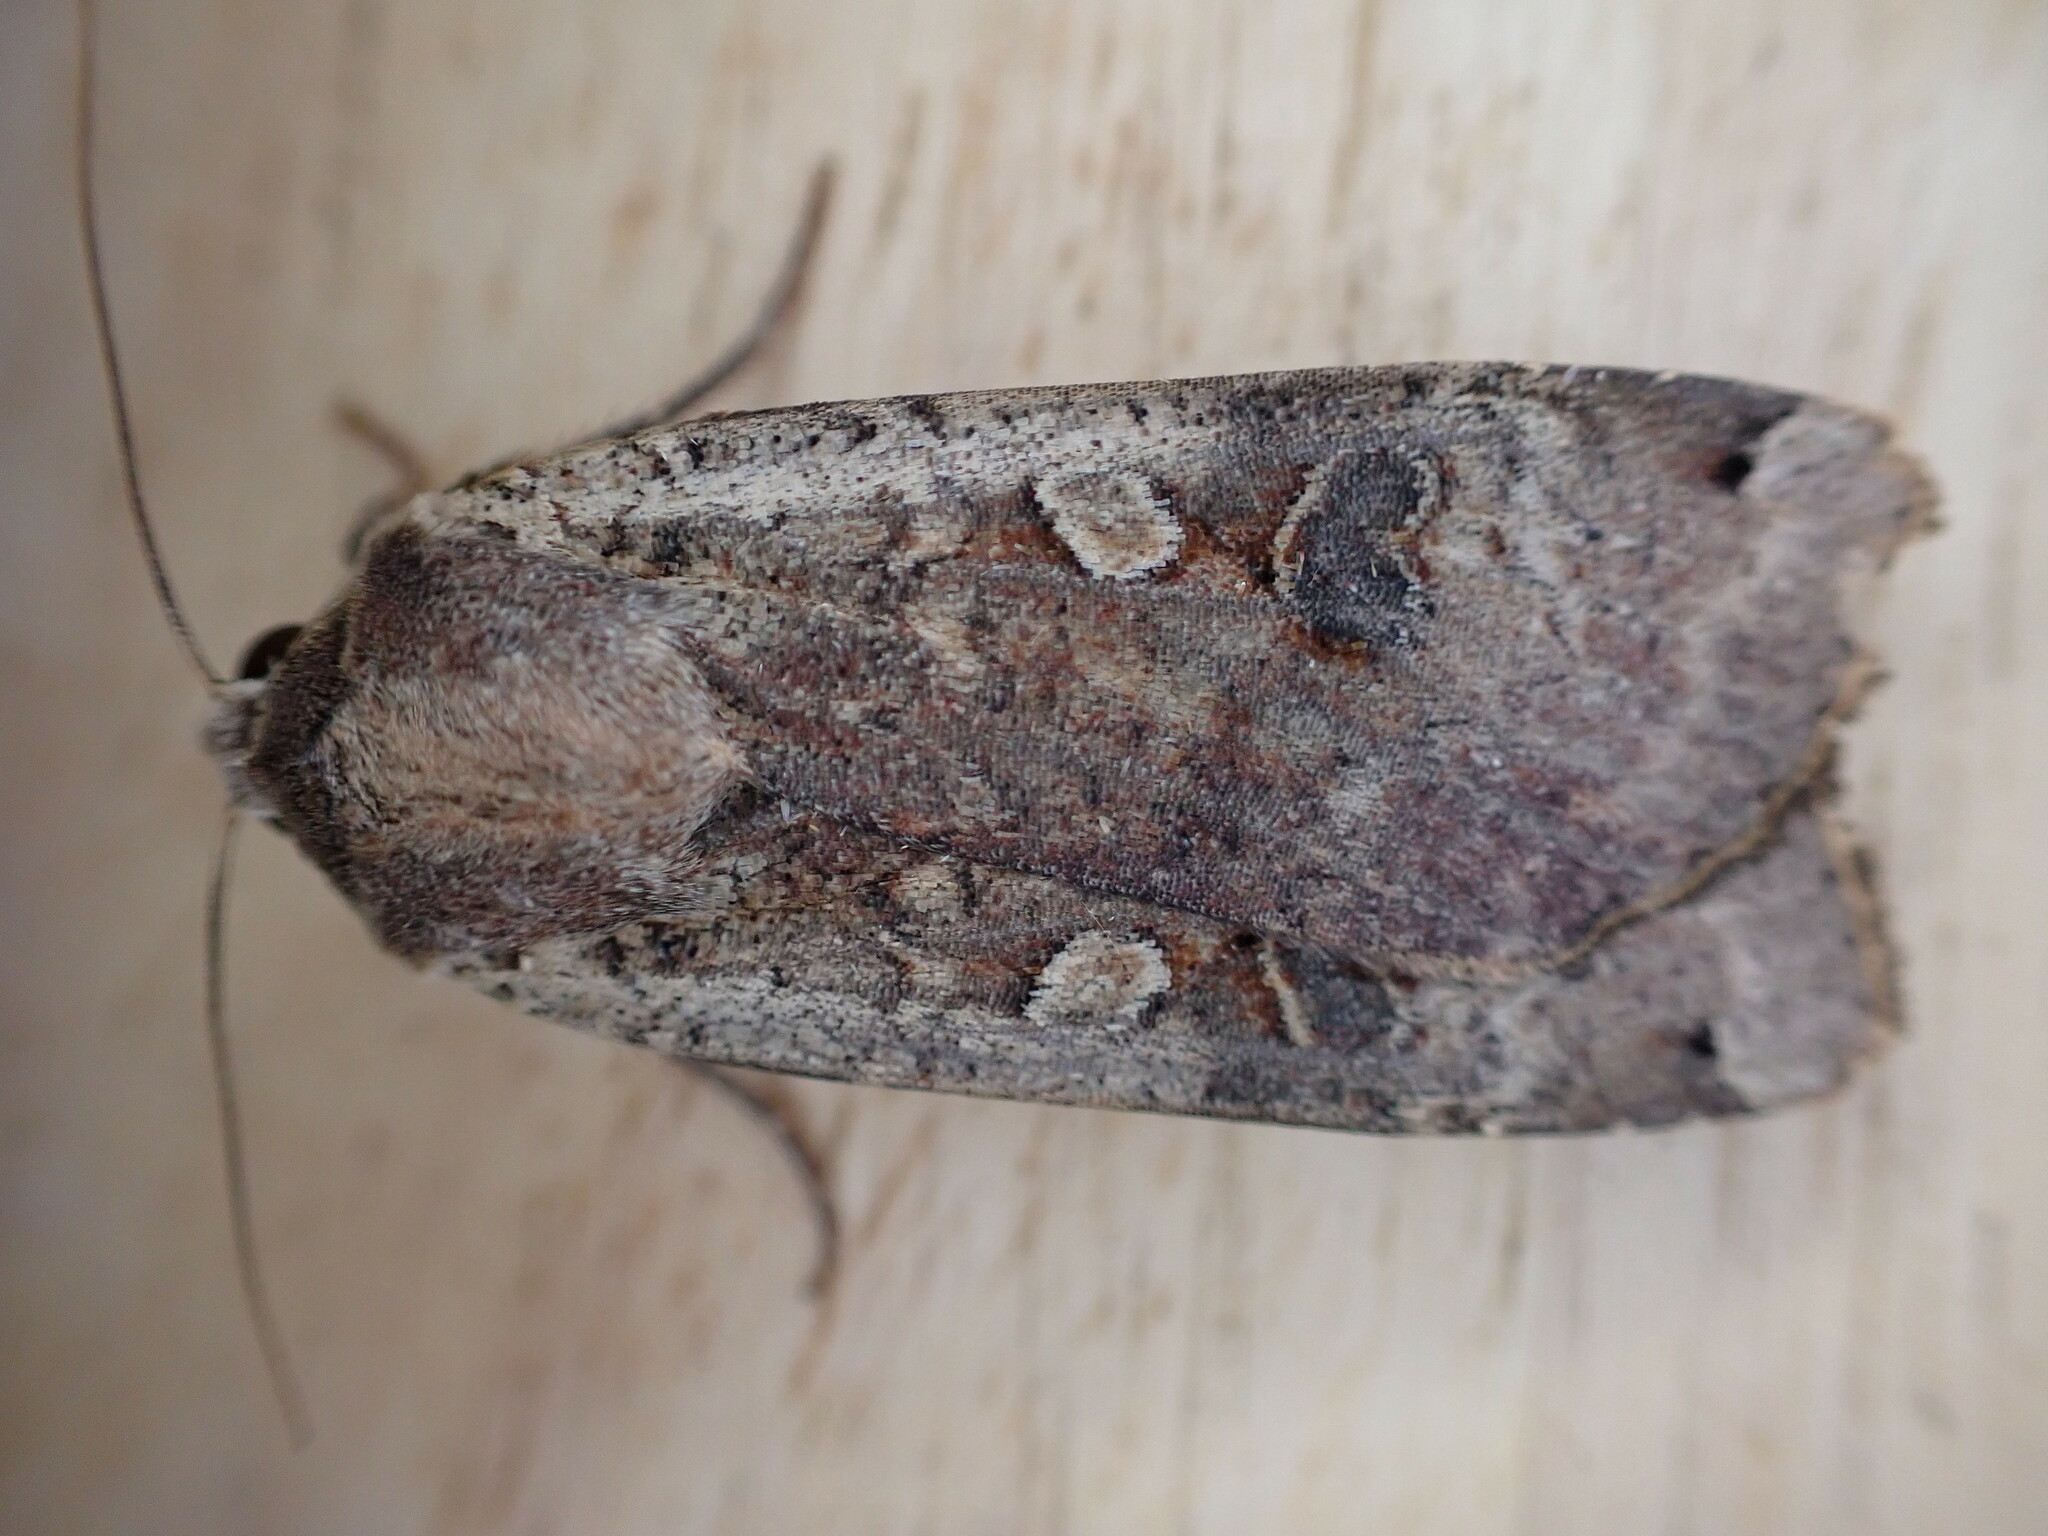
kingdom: Animalia
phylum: Arthropoda
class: Insecta
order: Lepidoptera
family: Noctuidae
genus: Noctua
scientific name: Noctua pronuba
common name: Large yellow underwing
